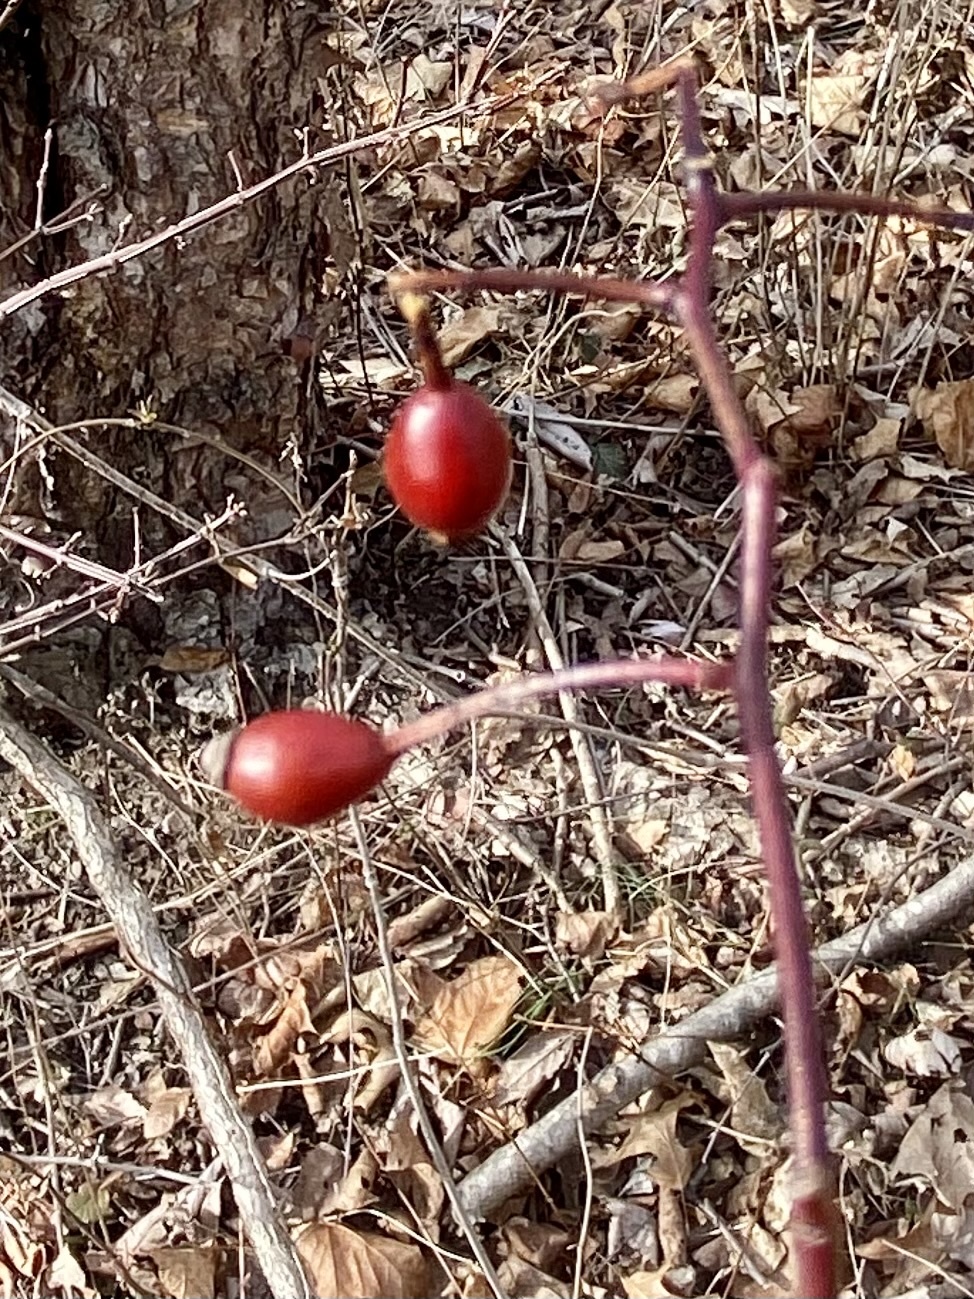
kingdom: Plantae
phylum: Tracheophyta
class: Magnoliopsida
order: Rosales
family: Rosaceae
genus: Rosa
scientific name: Rosa multiflora
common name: Multiflora rose
